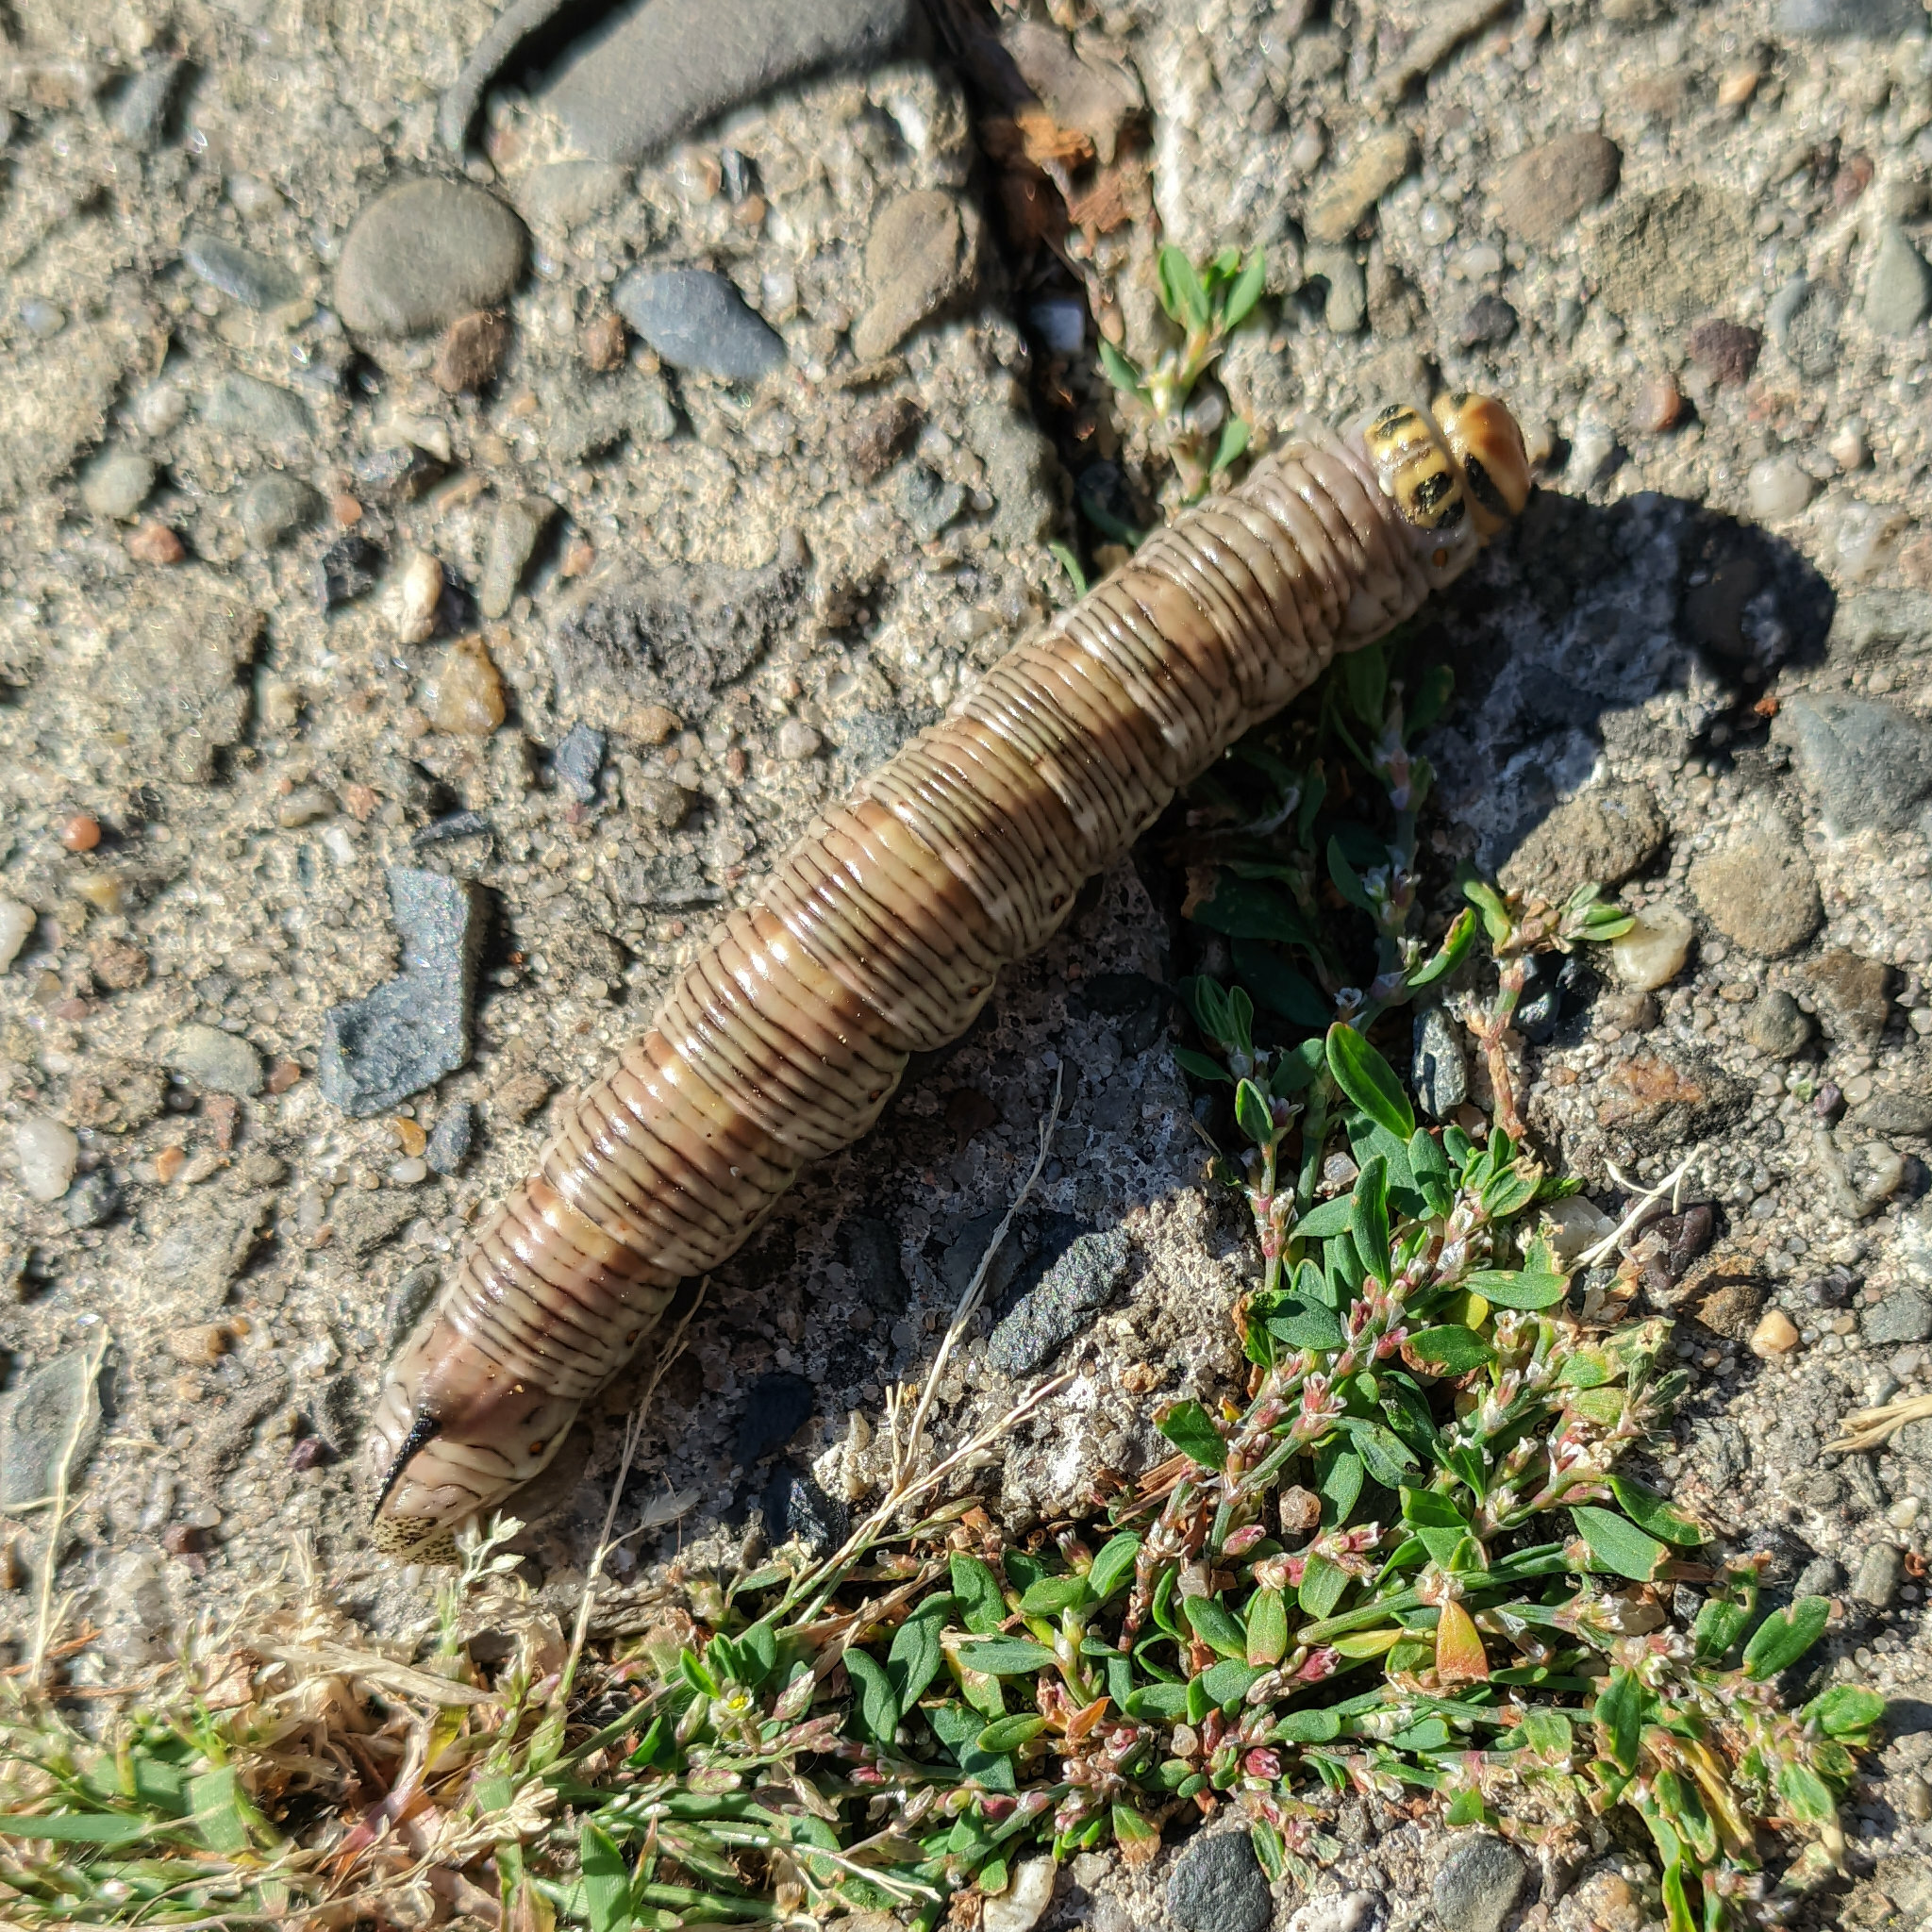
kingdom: Animalia
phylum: Arthropoda
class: Insecta
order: Lepidoptera
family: Sphingidae
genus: Sphinx
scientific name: Sphinx pinastri
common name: Pine hawk-moth
